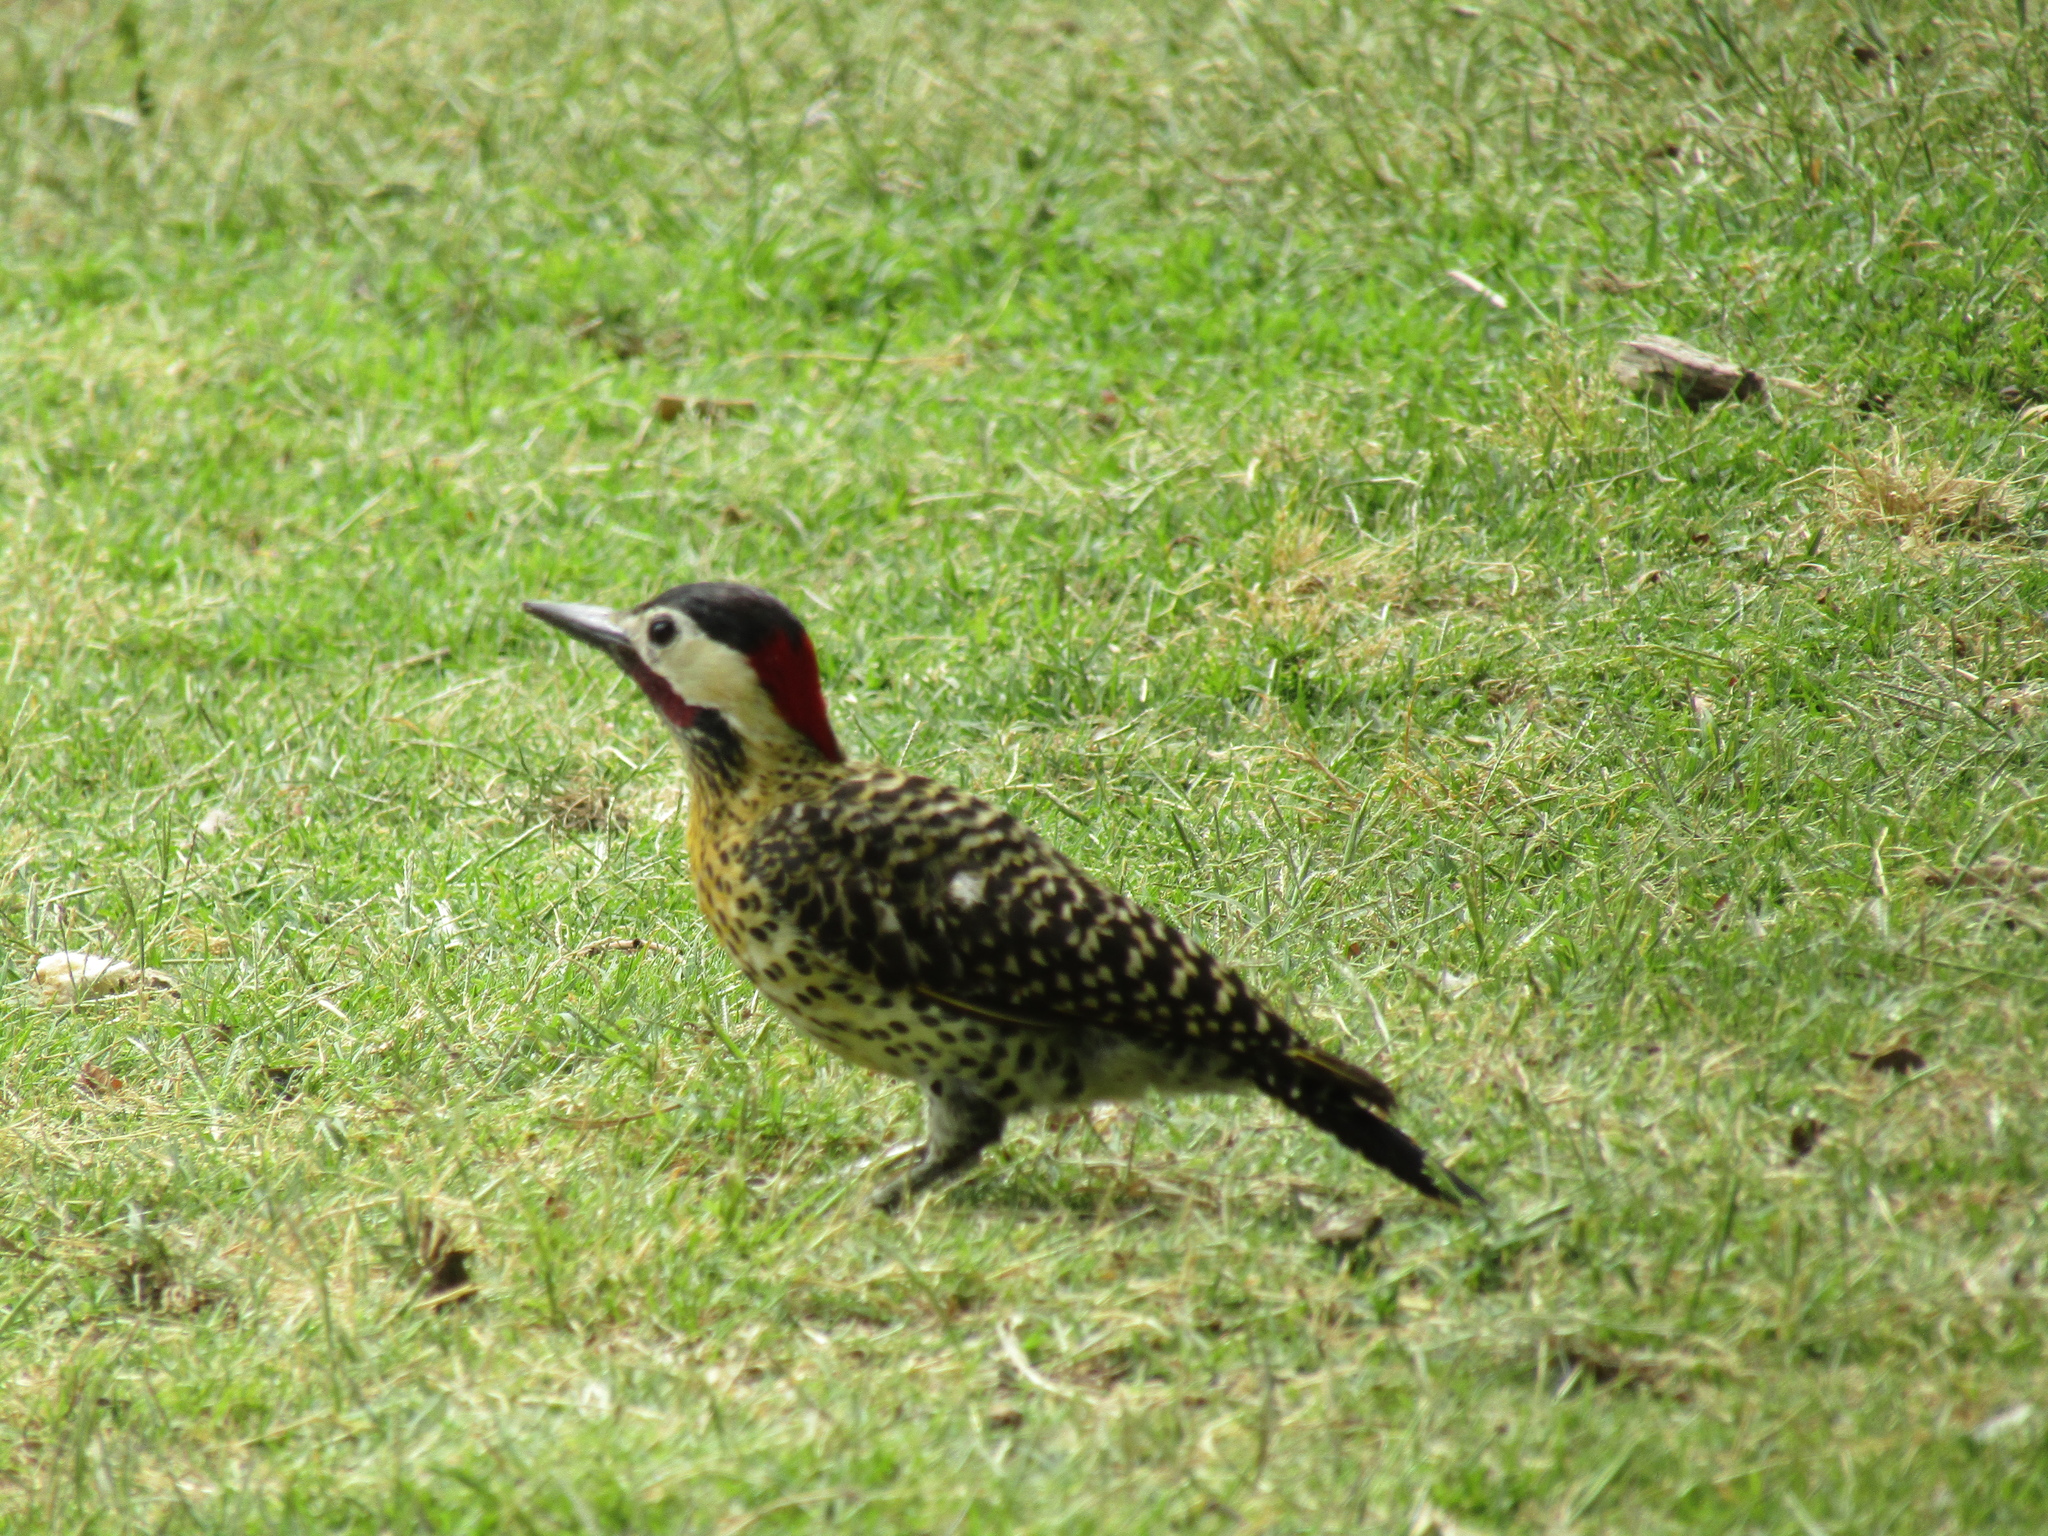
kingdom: Animalia
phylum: Chordata
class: Aves
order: Piciformes
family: Picidae
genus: Colaptes
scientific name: Colaptes melanochloros
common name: Green-barred woodpecker
